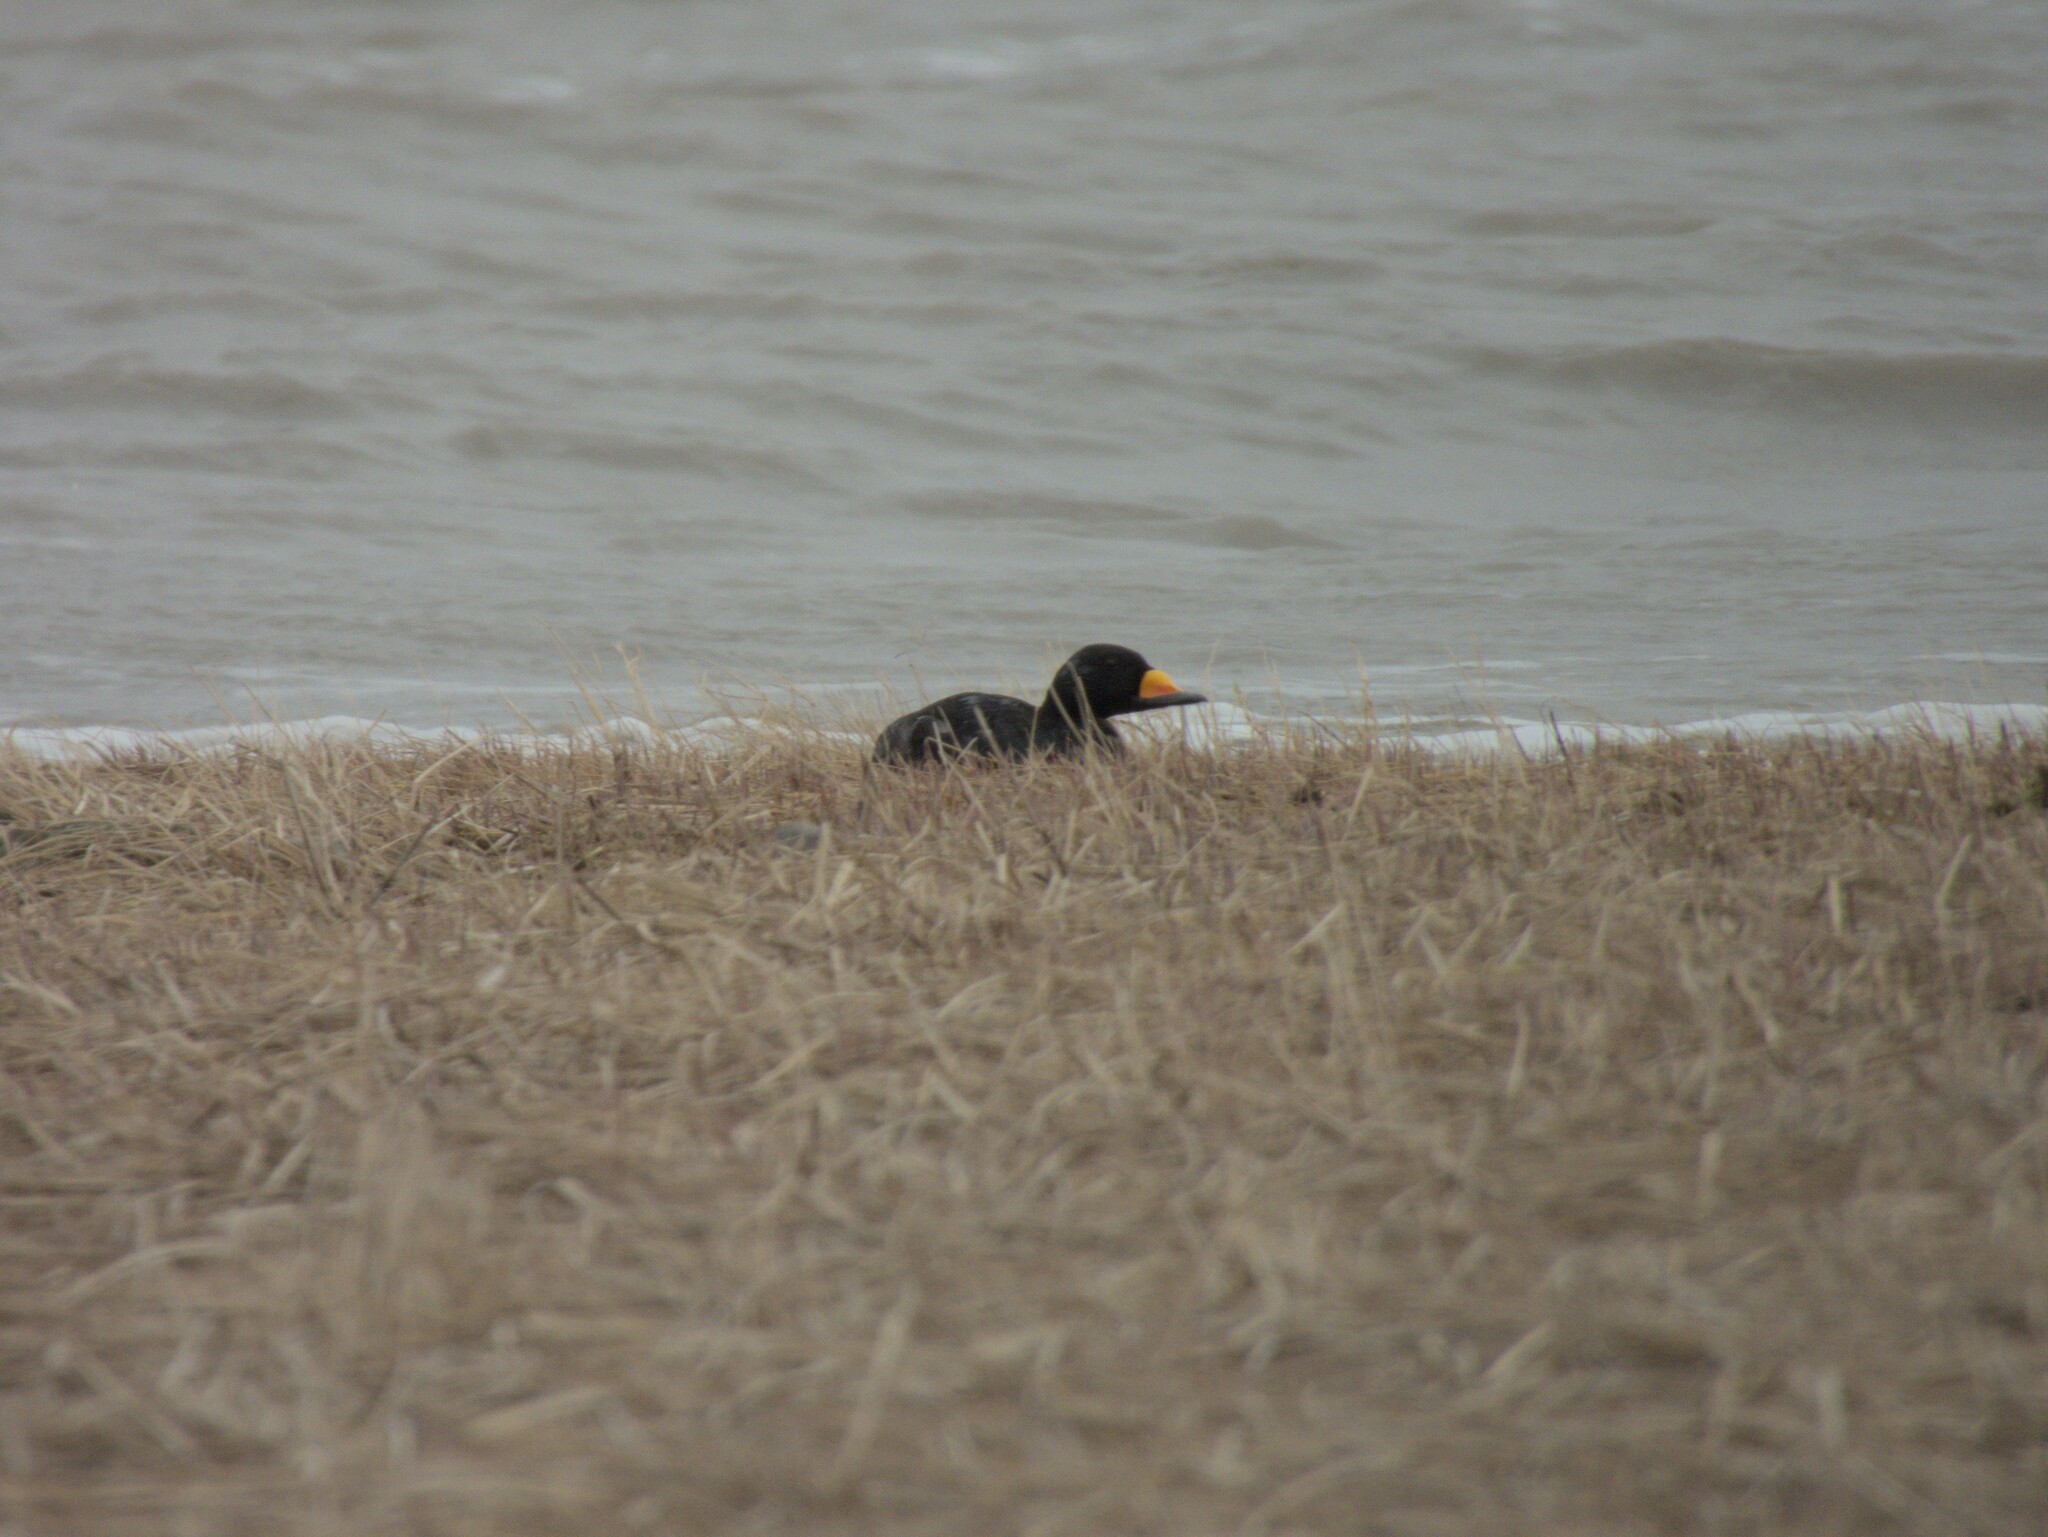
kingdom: Animalia
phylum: Chordata
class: Aves
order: Anseriformes
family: Anatidae
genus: Melanitta
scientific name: Melanitta americana
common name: Black scoter
